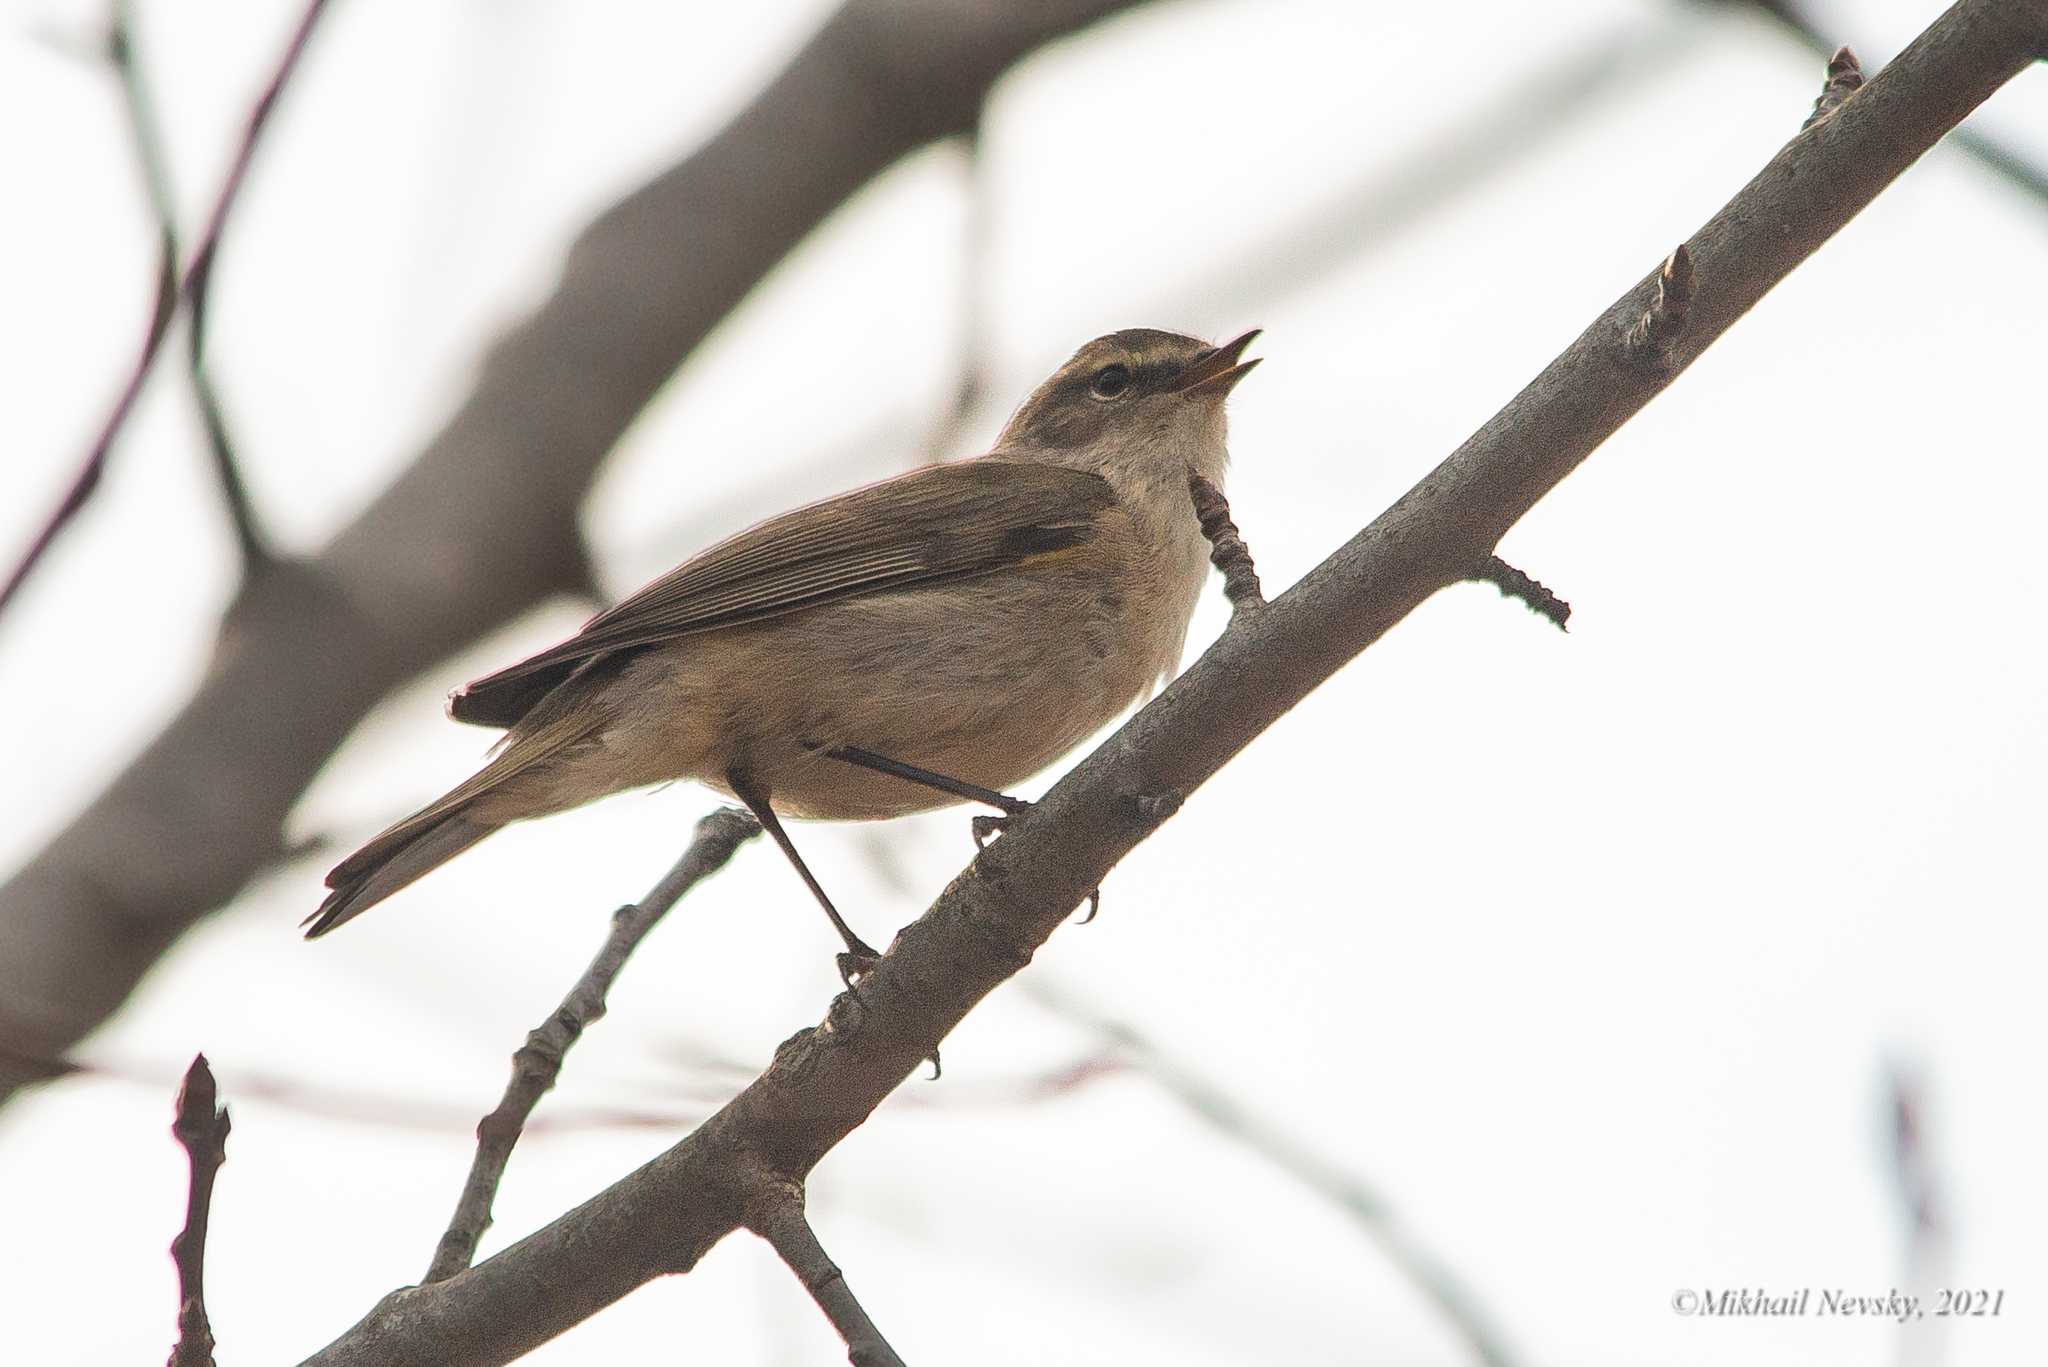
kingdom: Animalia
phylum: Chordata
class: Aves
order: Passeriformes
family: Phylloscopidae
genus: Phylloscopus
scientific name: Phylloscopus collybita
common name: Common chiffchaff
